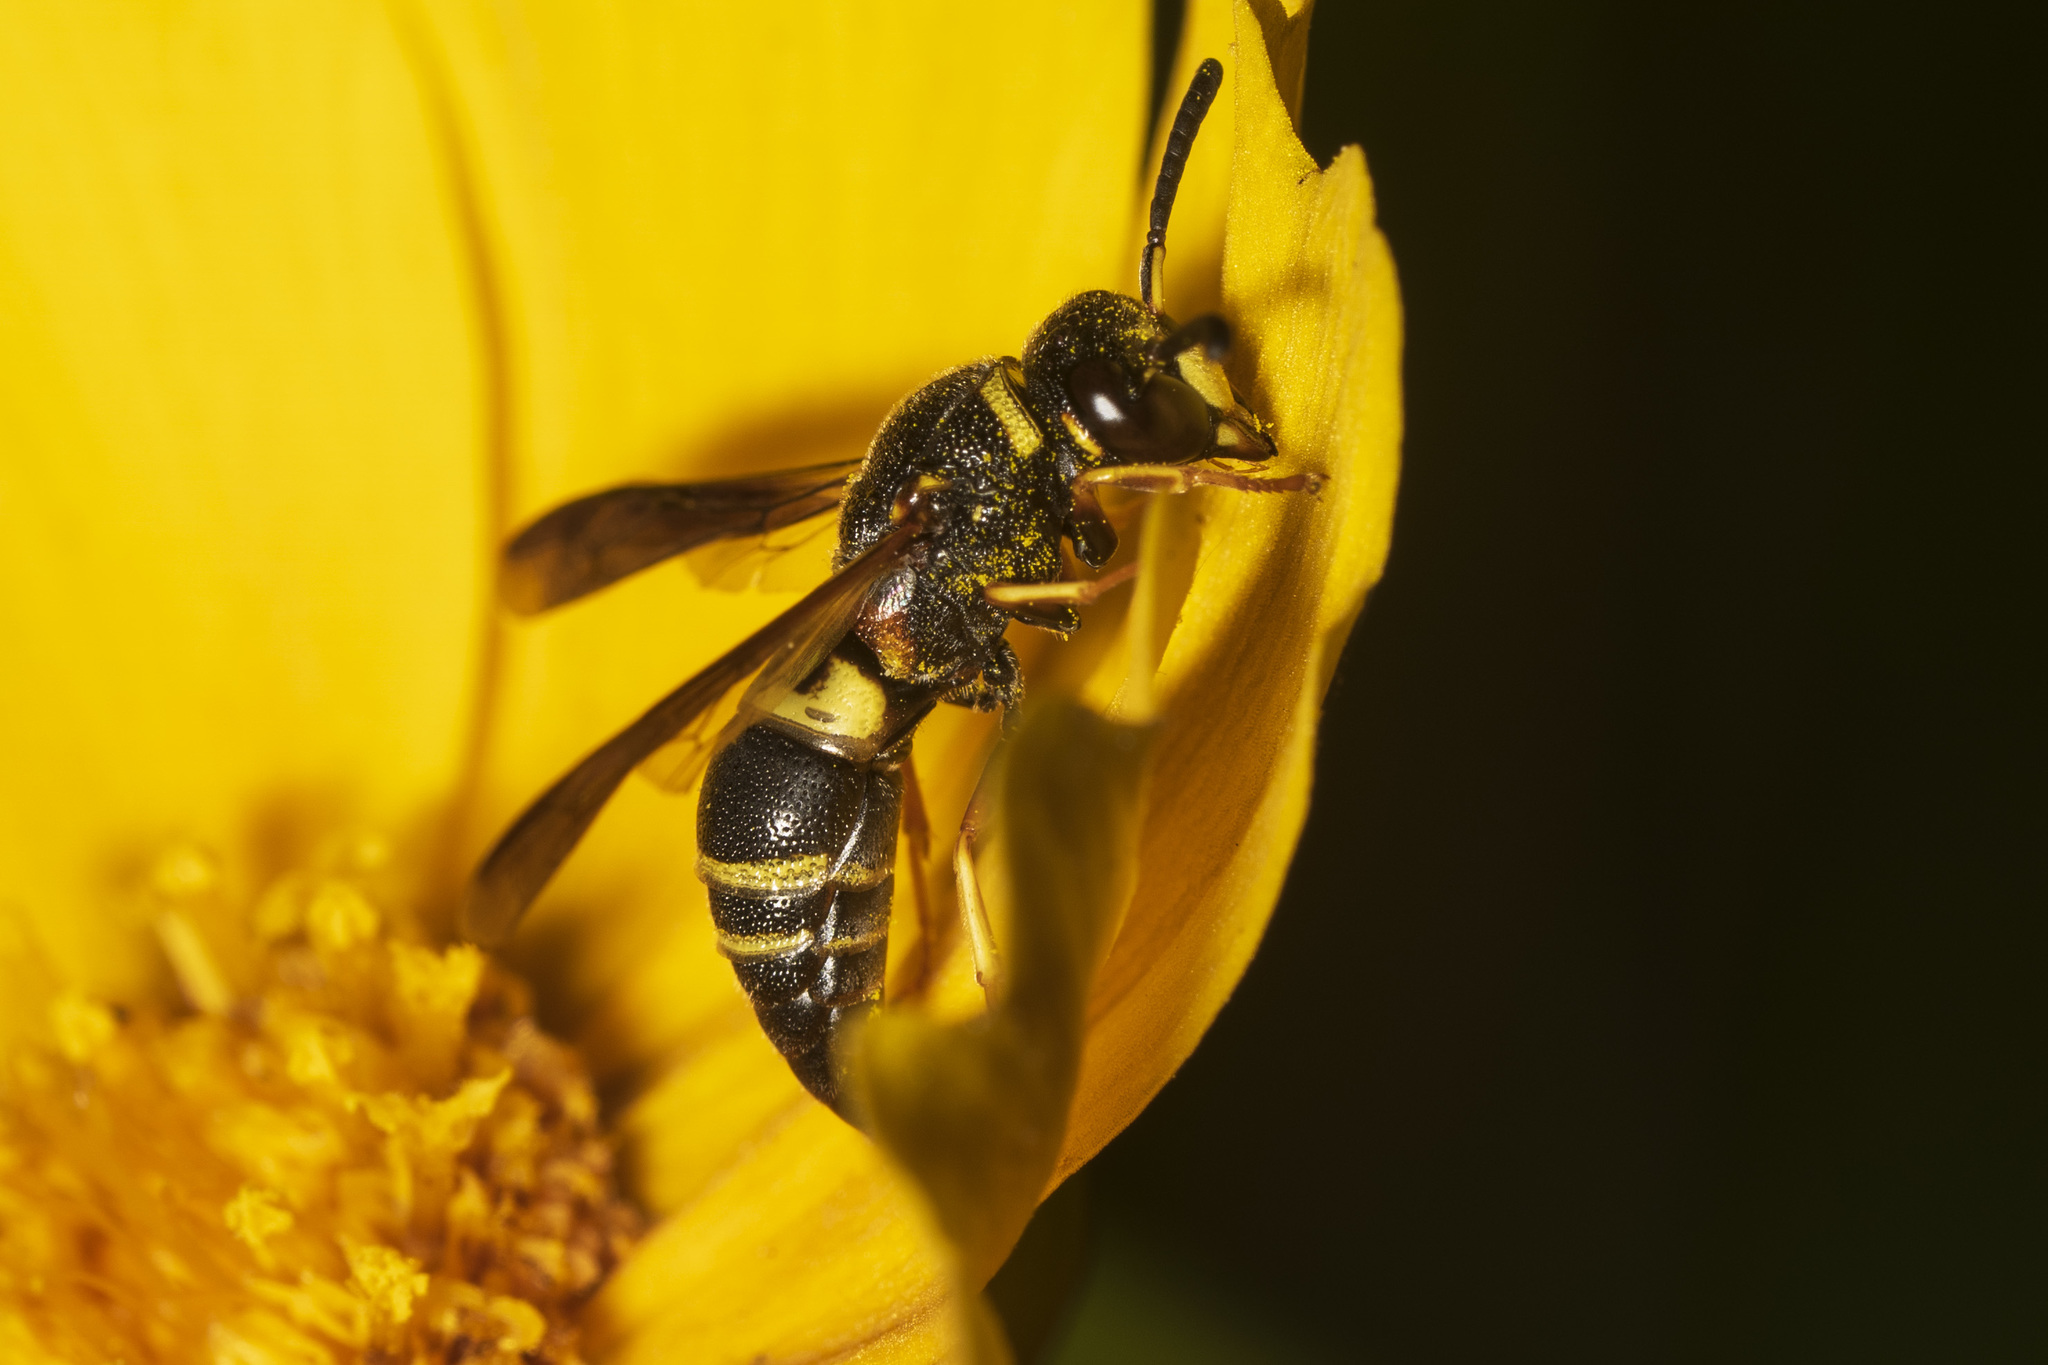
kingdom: Animalia
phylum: Arthropoda
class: Insecta
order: Hymenoptera
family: Eumenidae
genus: Euodynerus
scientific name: Euodynerus hidalgo
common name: Wasp
